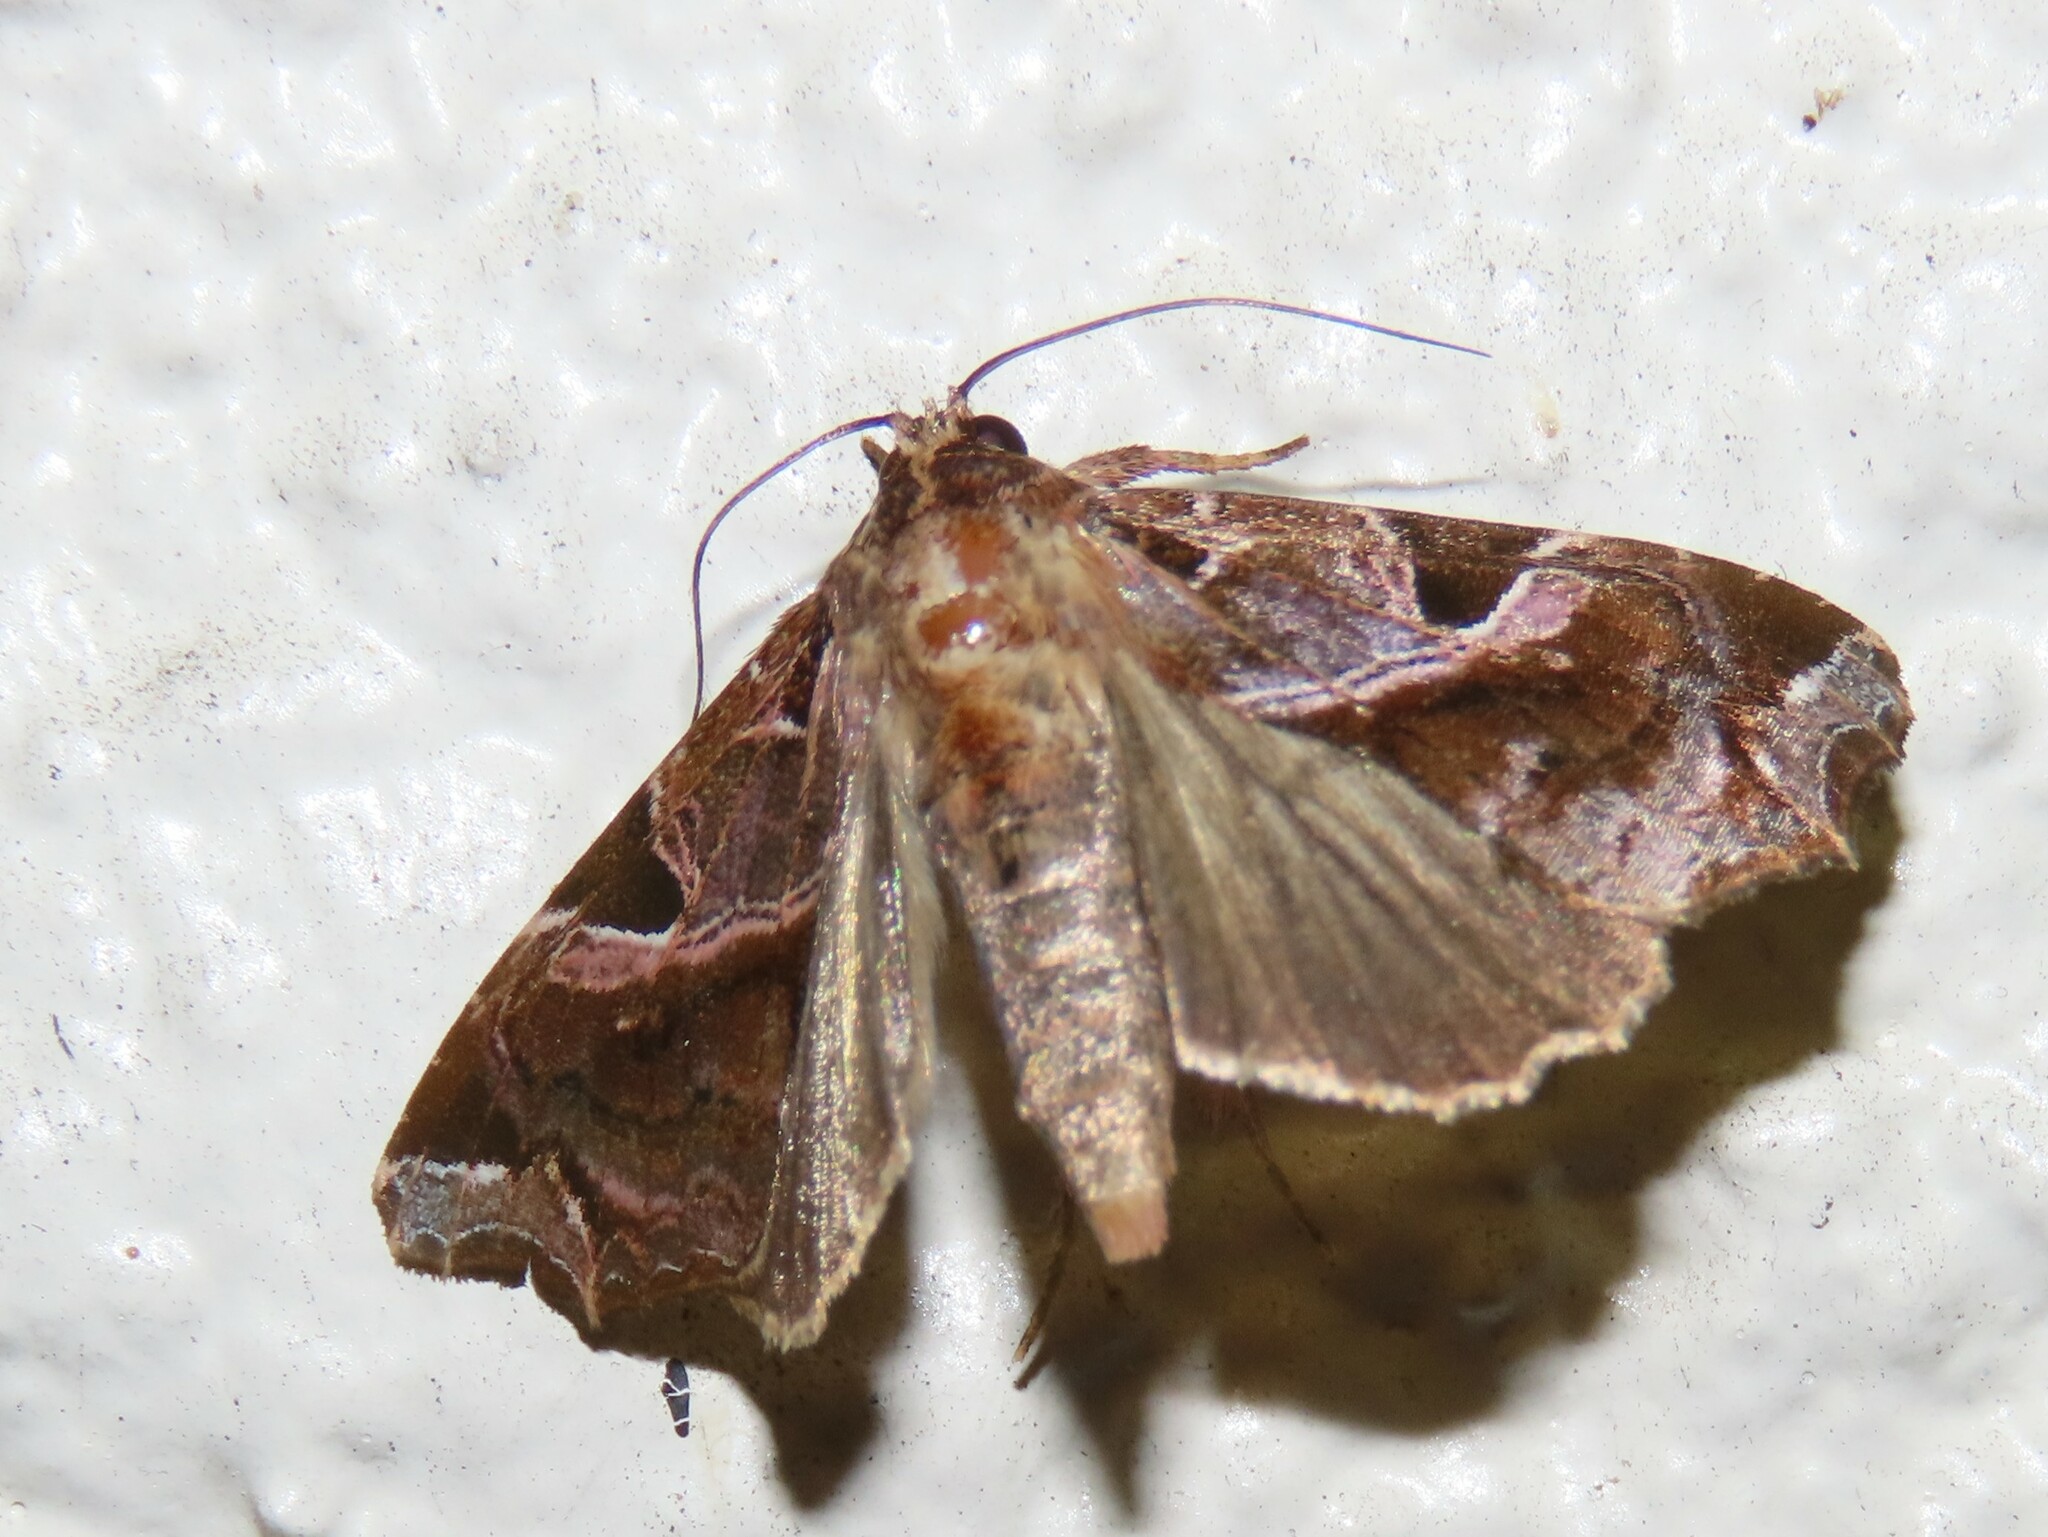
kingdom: Animalia
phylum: Arthropoda
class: Insecta
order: Lepidoptera
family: Noctuidae
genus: Callopistria
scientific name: Callopistria floridensis
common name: Florida fern moth
